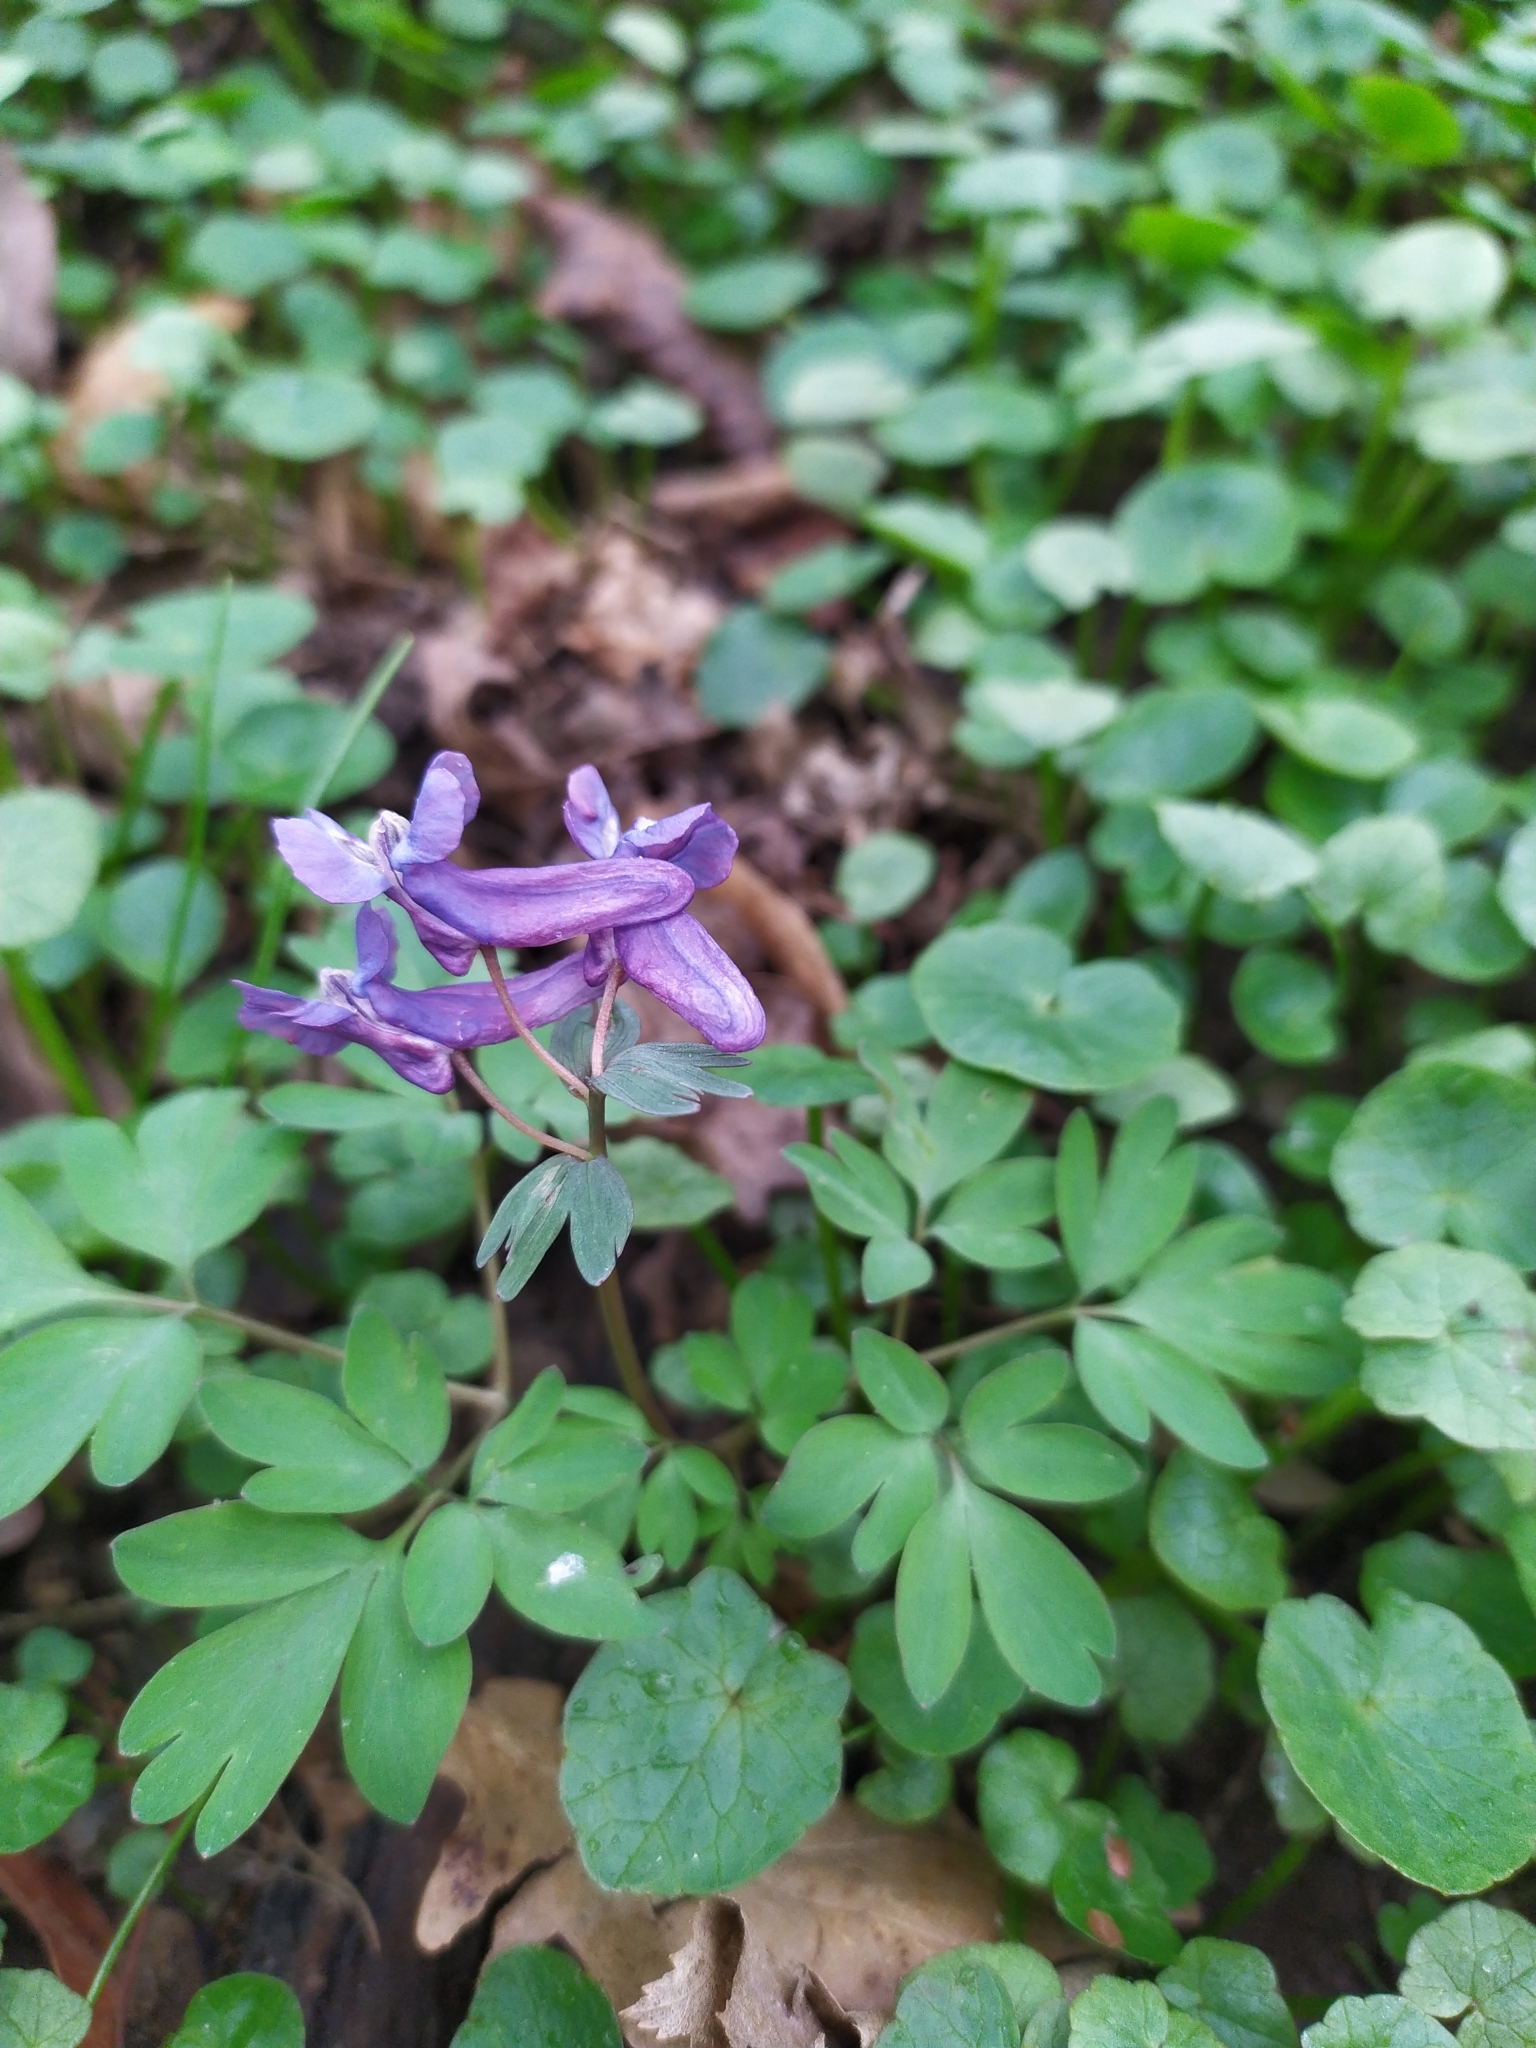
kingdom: Plantae
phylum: Tracheophyta
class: Magnoliopsida
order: Ranunculales
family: Papaveraceae
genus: Corydalis
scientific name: Corydalis solida
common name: Bird-in-a-bush
